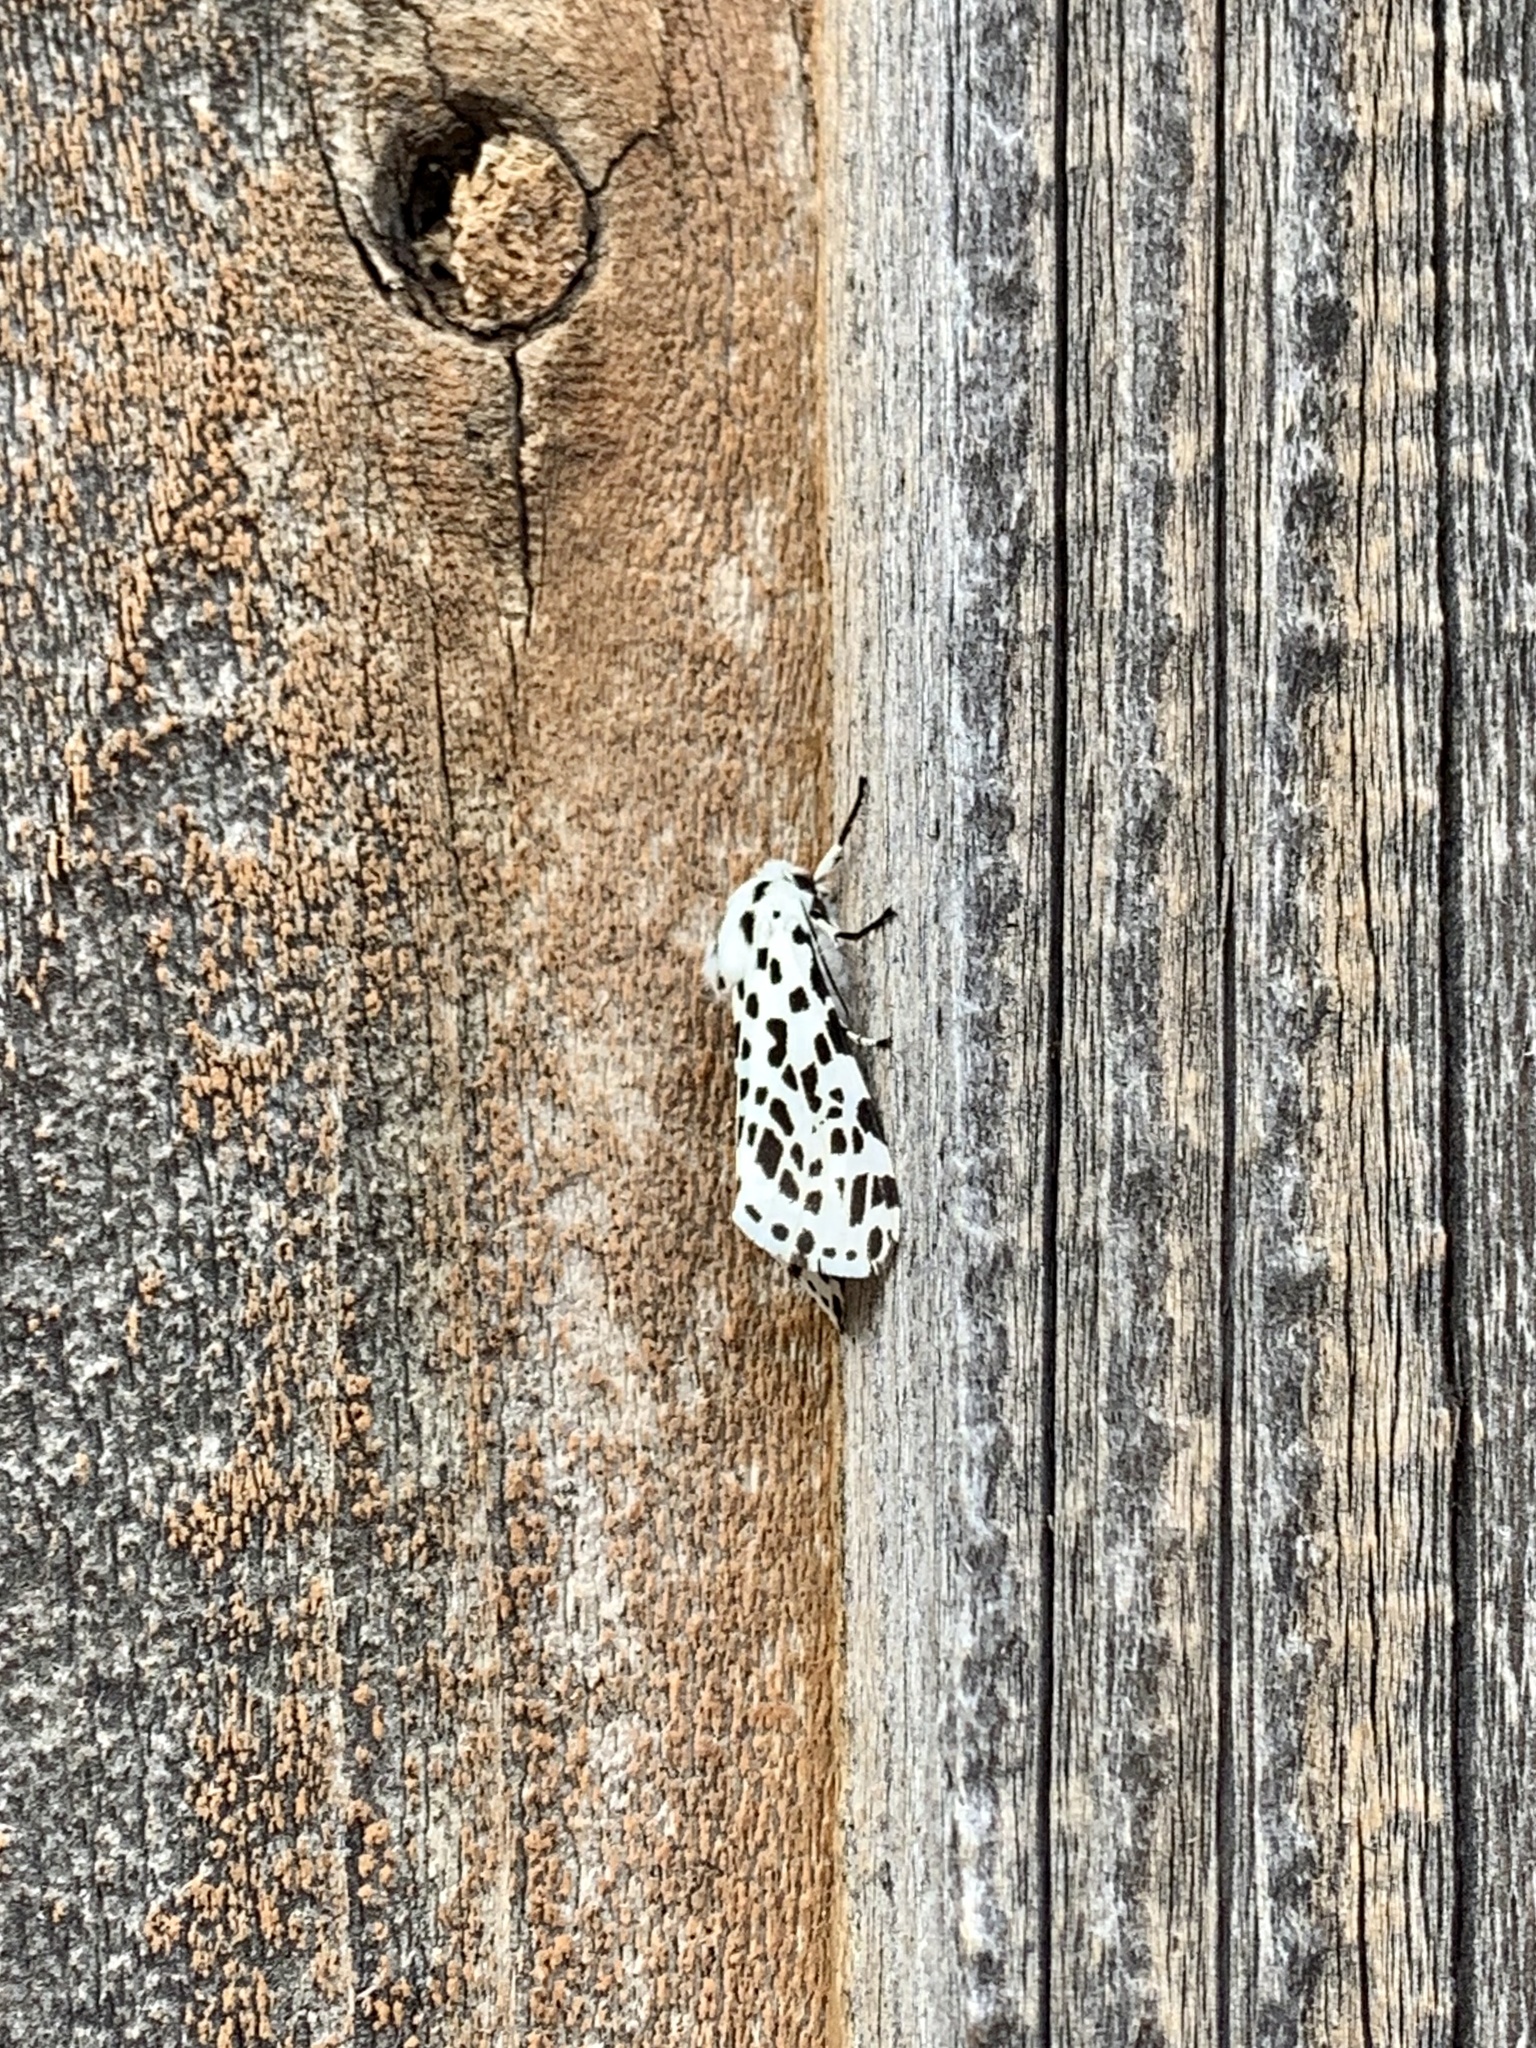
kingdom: Animalia
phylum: Arthropoda
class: Insecta
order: Lepidoptera
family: Erebidae
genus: Hypercompe
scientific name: Hypercompe permaculata
